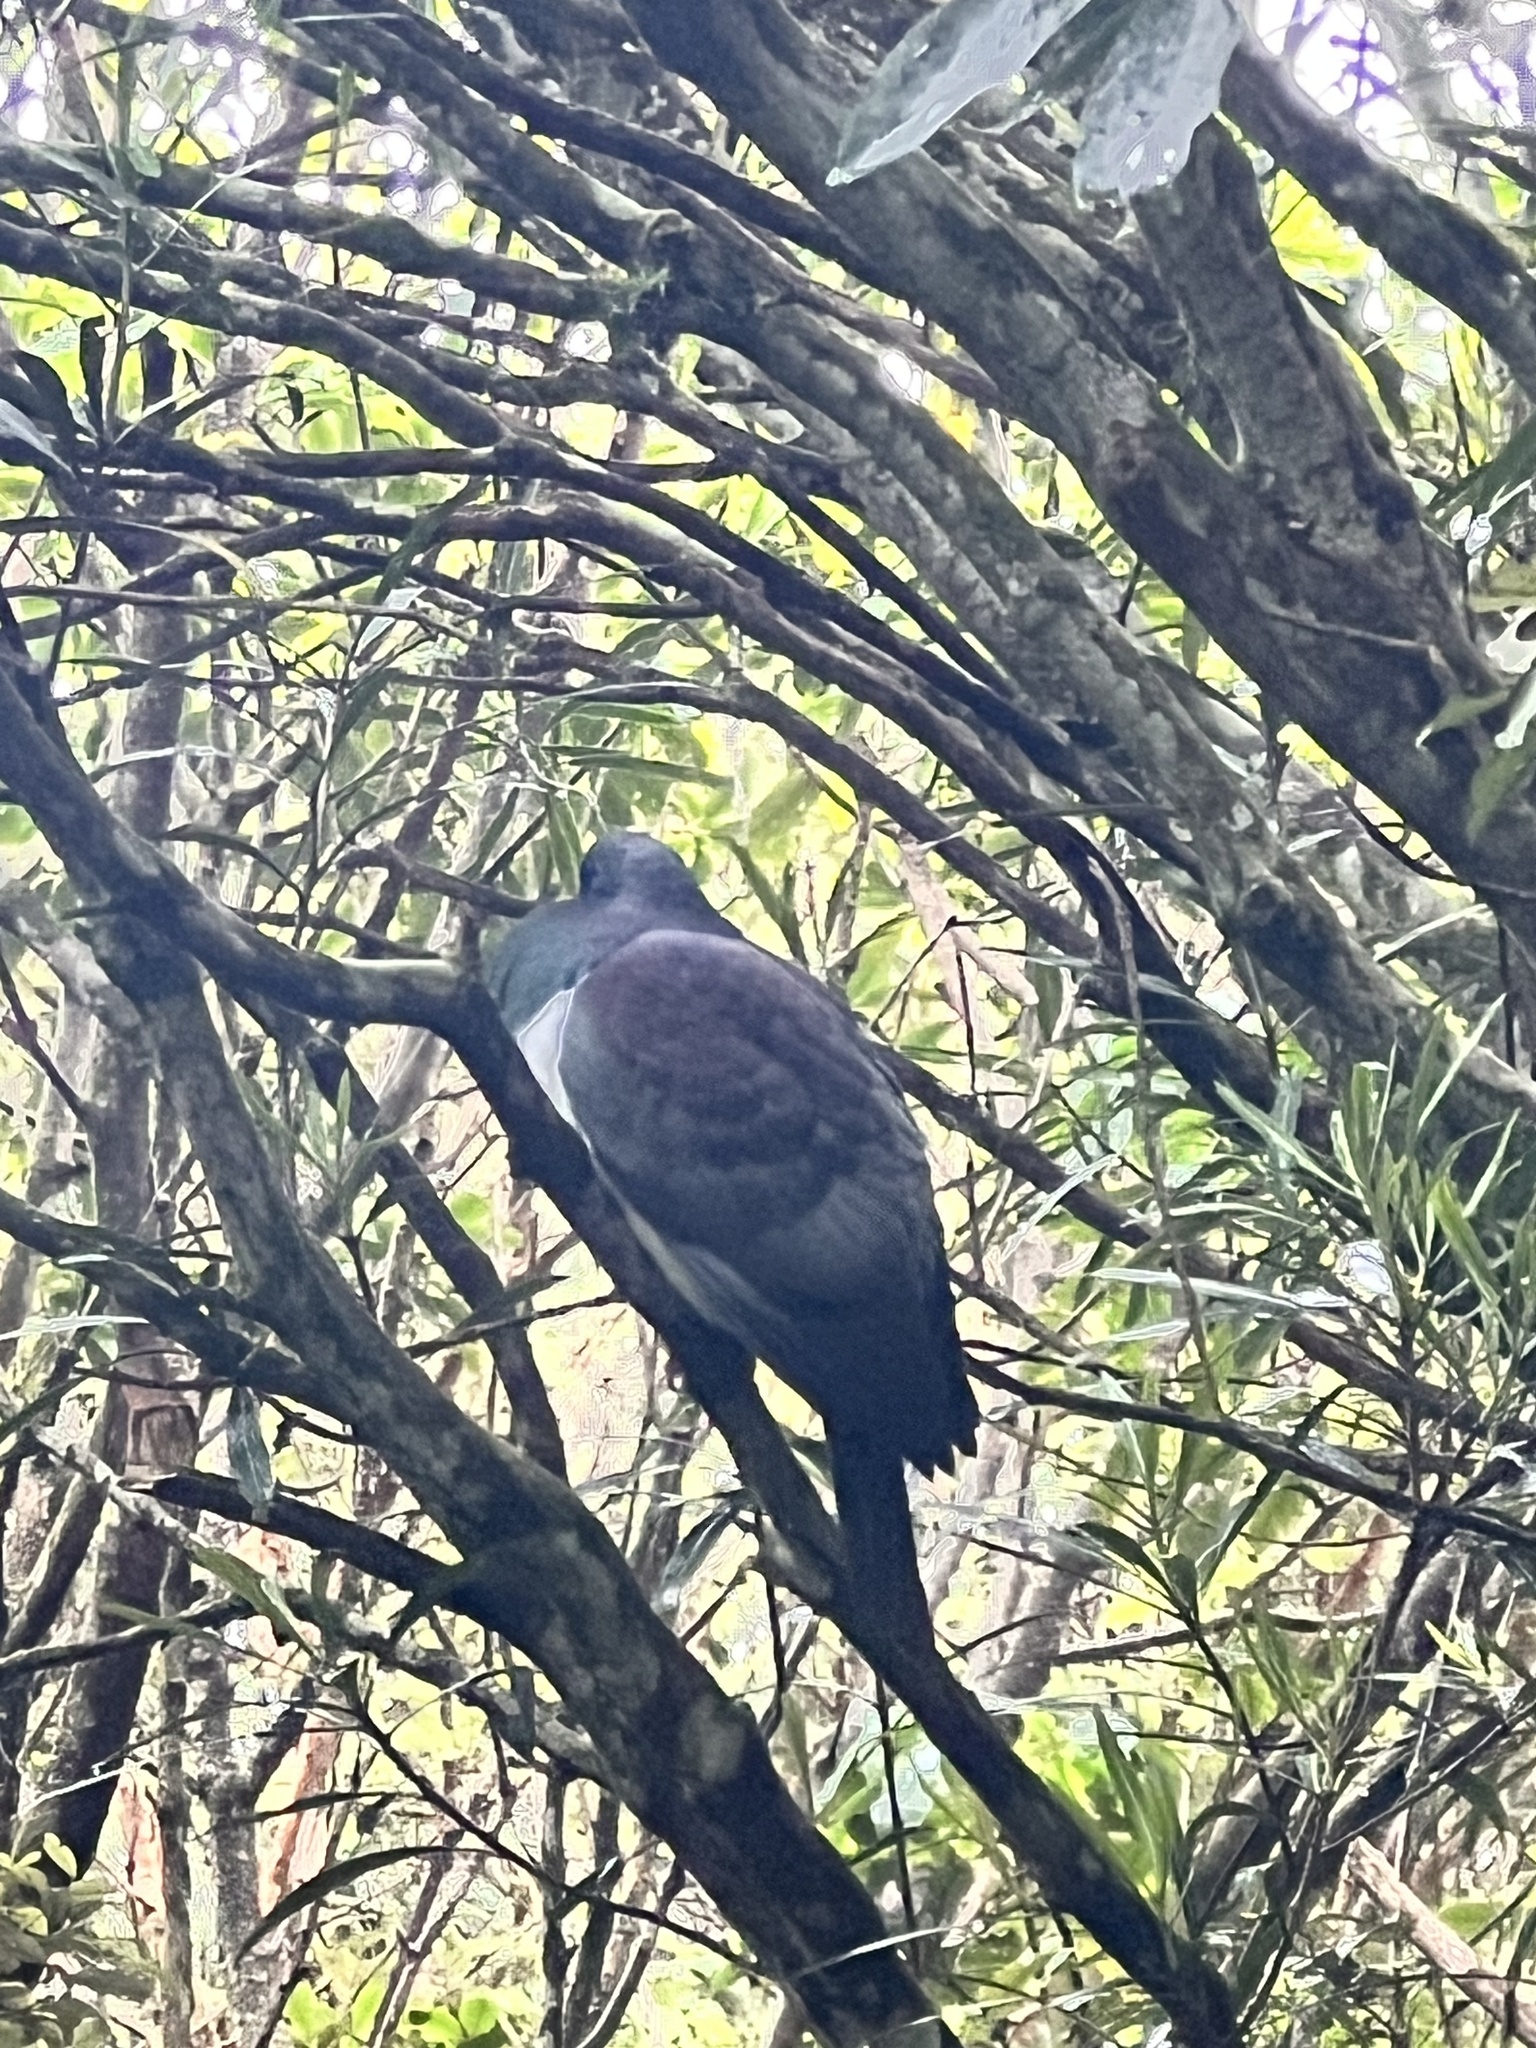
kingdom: Animalia
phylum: Chordata
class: Aves
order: Columbiformes
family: Columbidae
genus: Hemiphaga
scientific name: Hemiphaga novaeseelandiae
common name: New zealand pigeon
